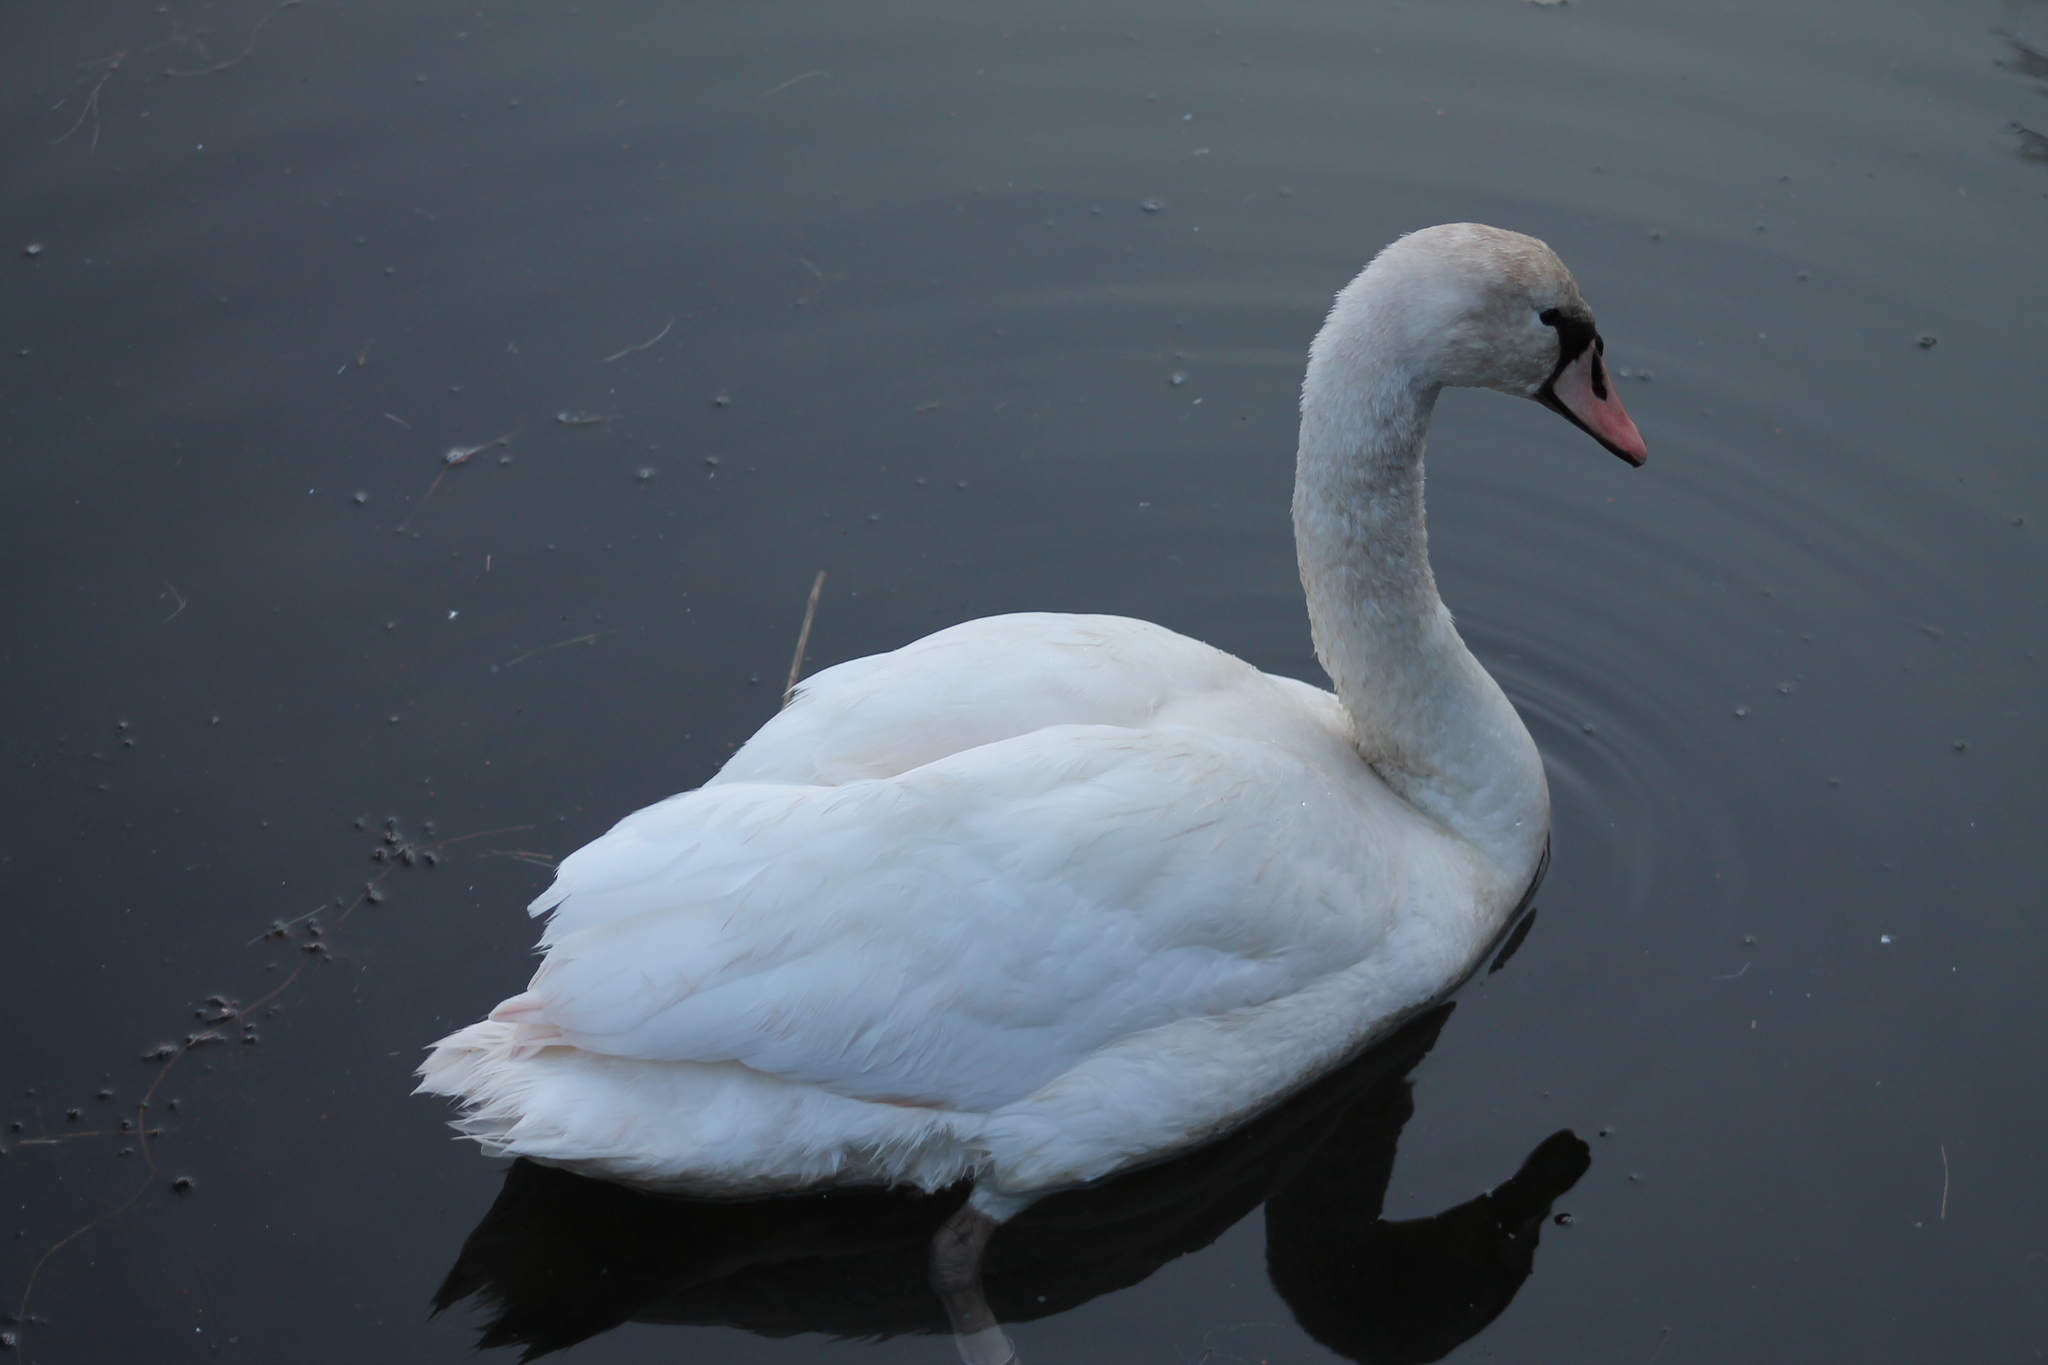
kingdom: Animalia
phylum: Chordata
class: Aves
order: Anseriformes
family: Anatidae
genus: Cygnus
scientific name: Cygnus olor
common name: Mute swan
